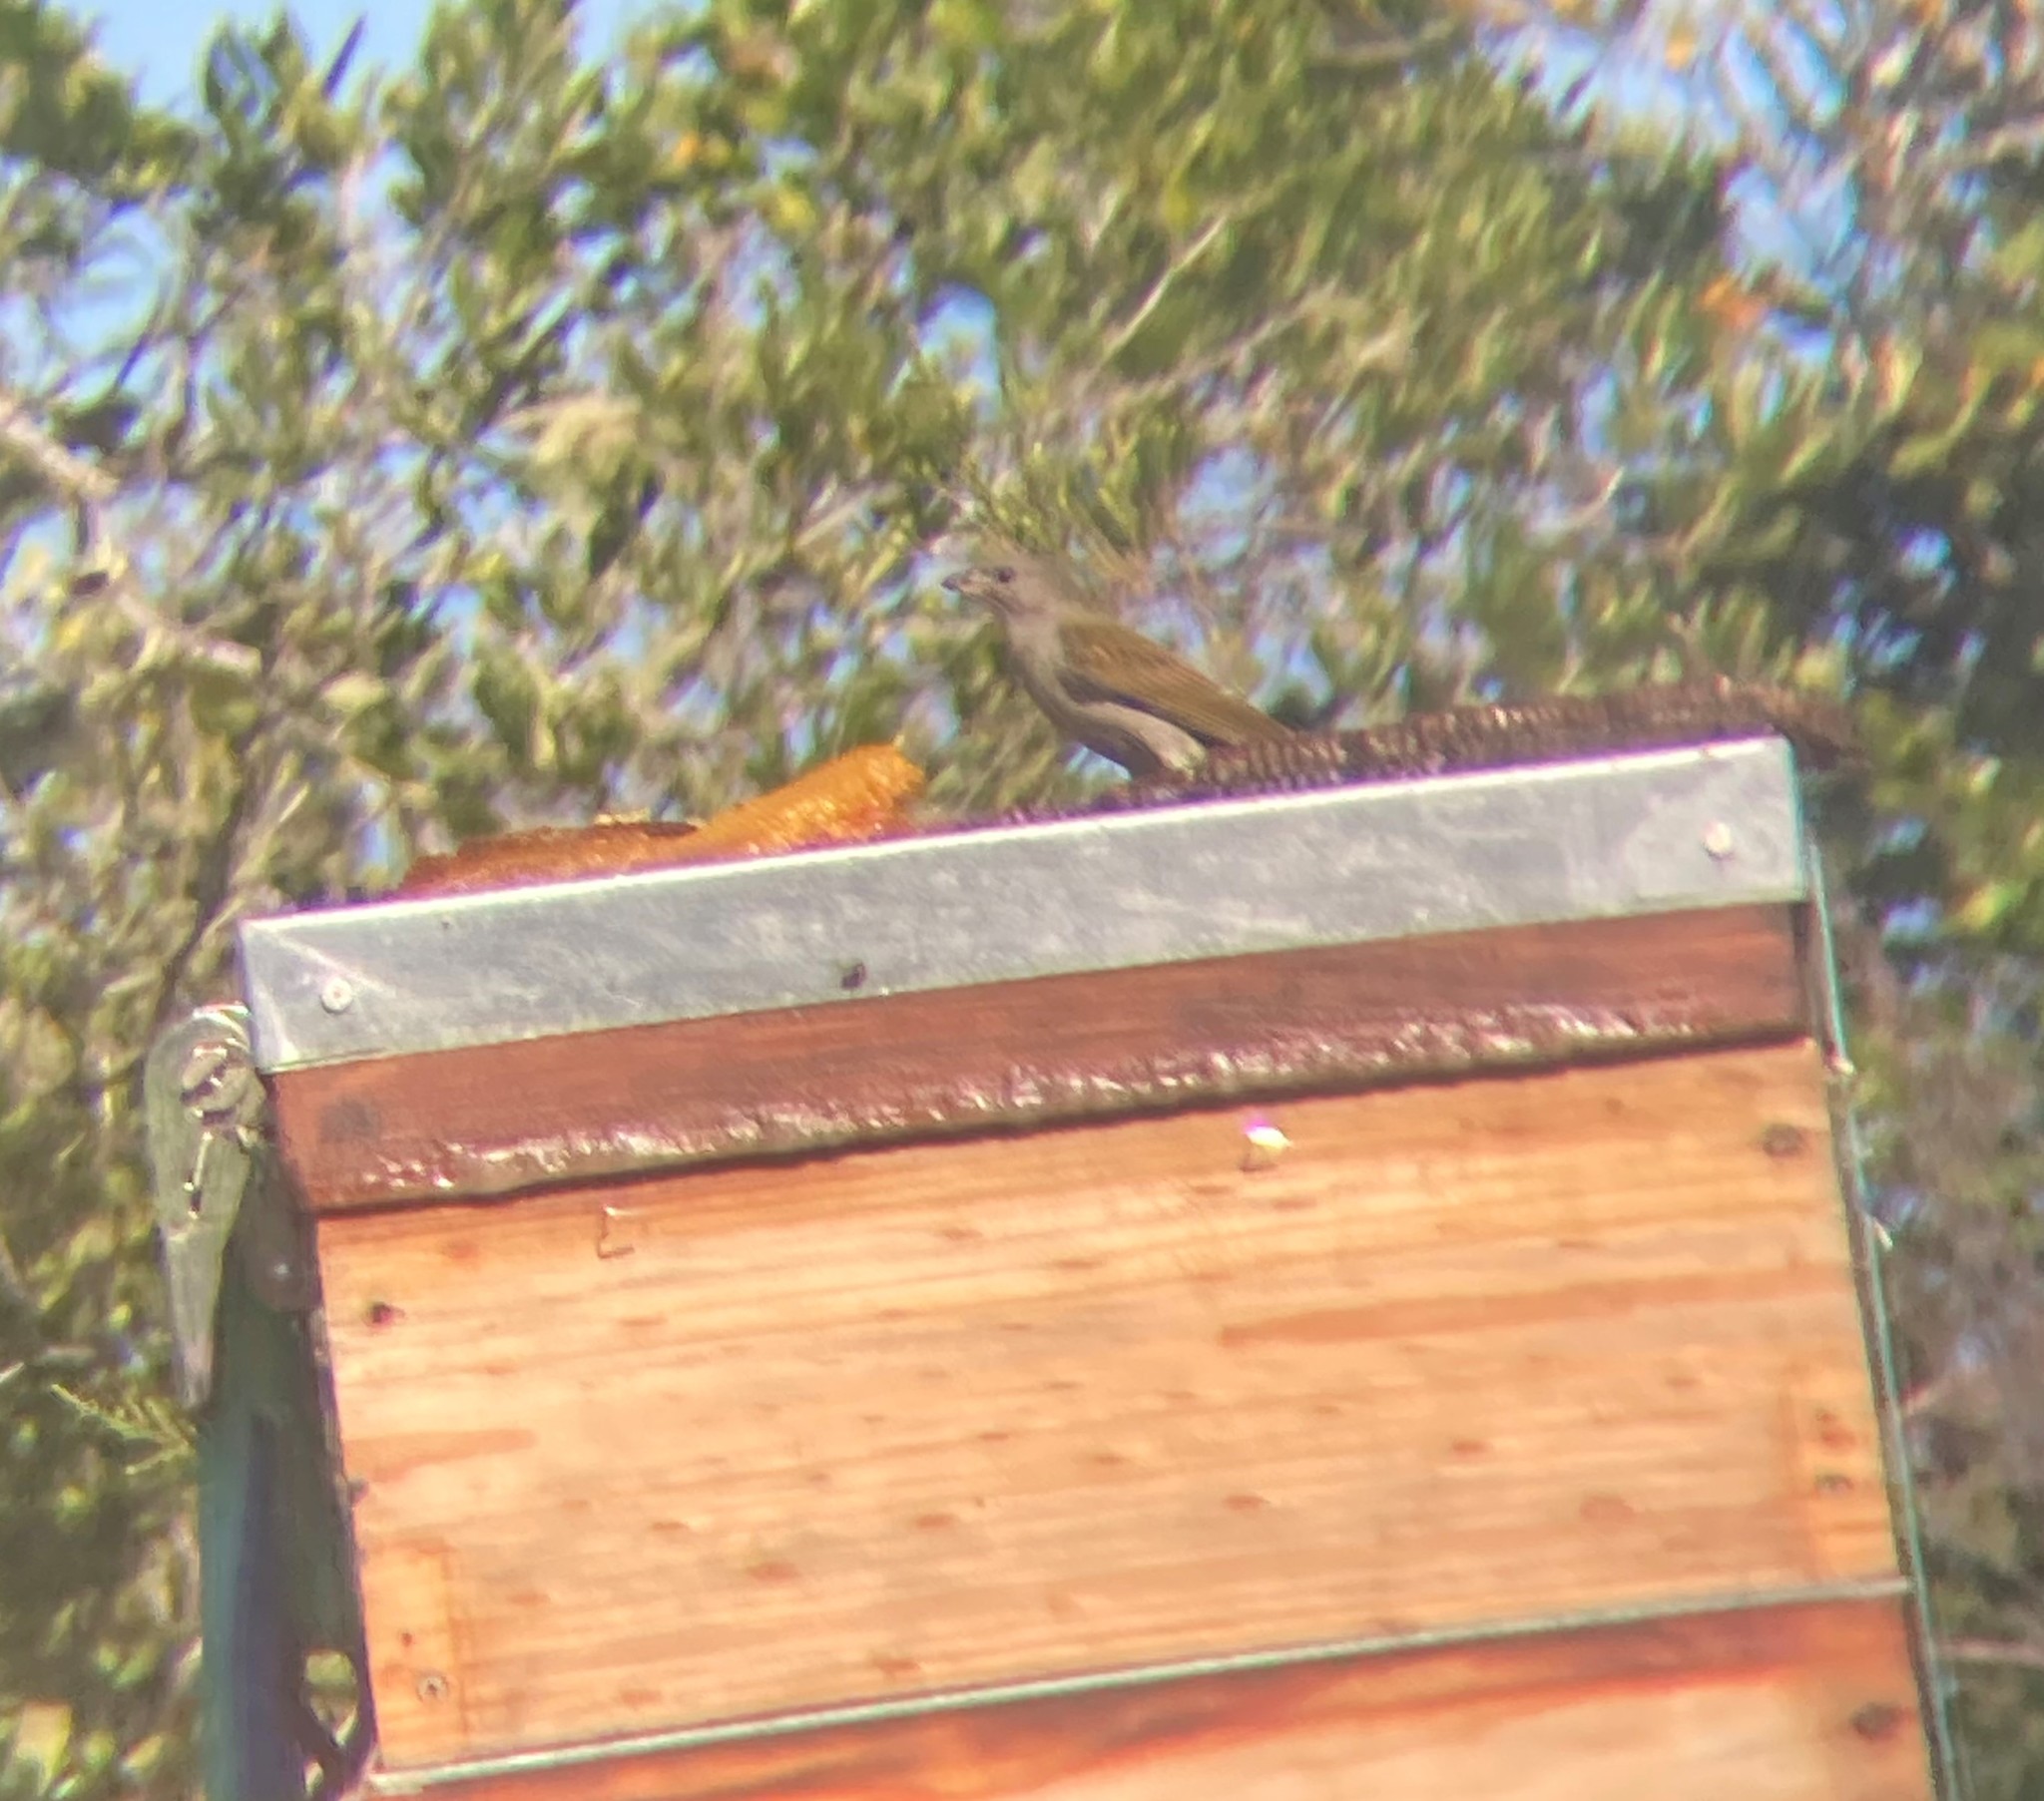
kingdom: Animalia
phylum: Chordata
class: Aves
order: Piciformes
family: Indicatoridae
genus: Indicator
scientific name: Indicator minor
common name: Lesser honeyguide
